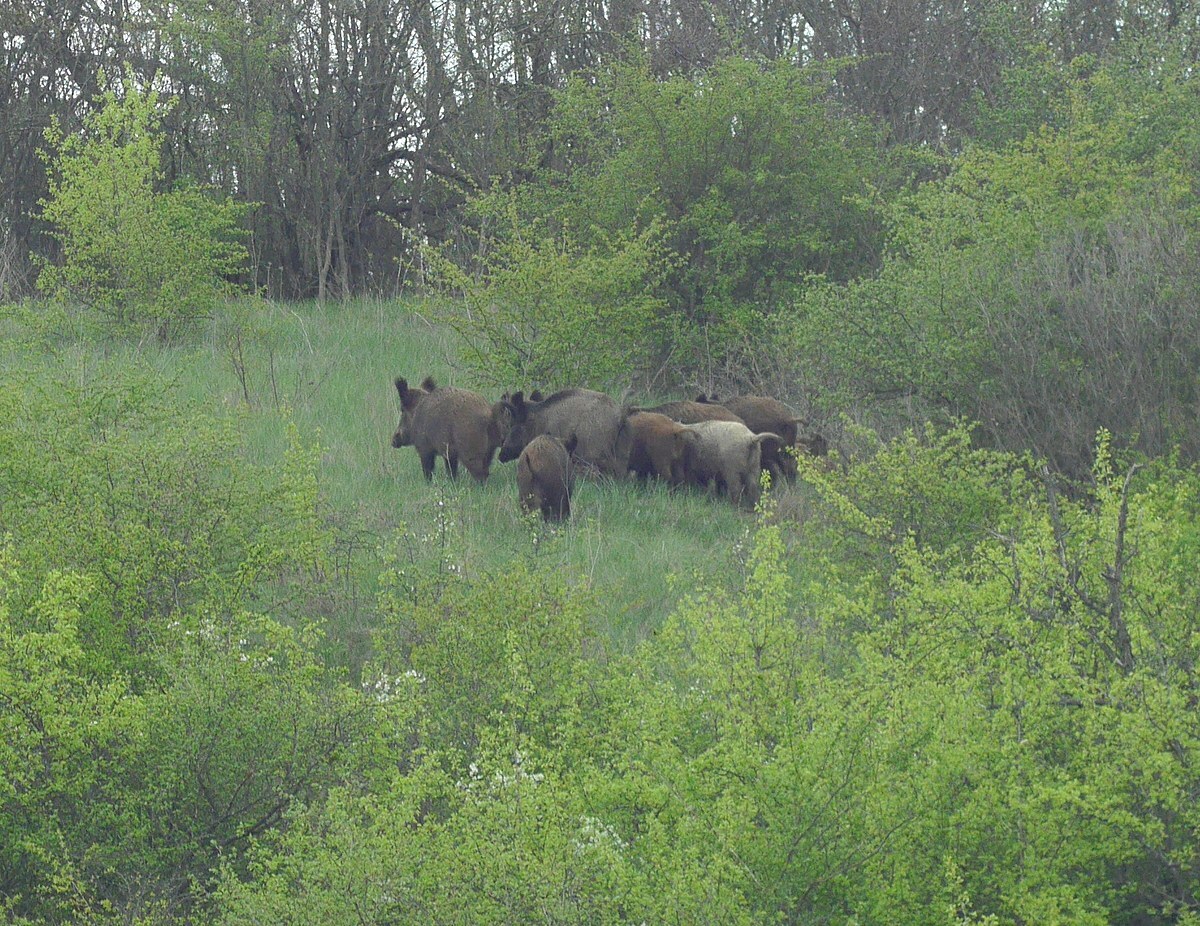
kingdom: Animalia
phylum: Chordata
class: Mammalia
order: Artiodactyla
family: Suidae
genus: Sus
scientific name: Sus scrofa
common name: Wild boar
